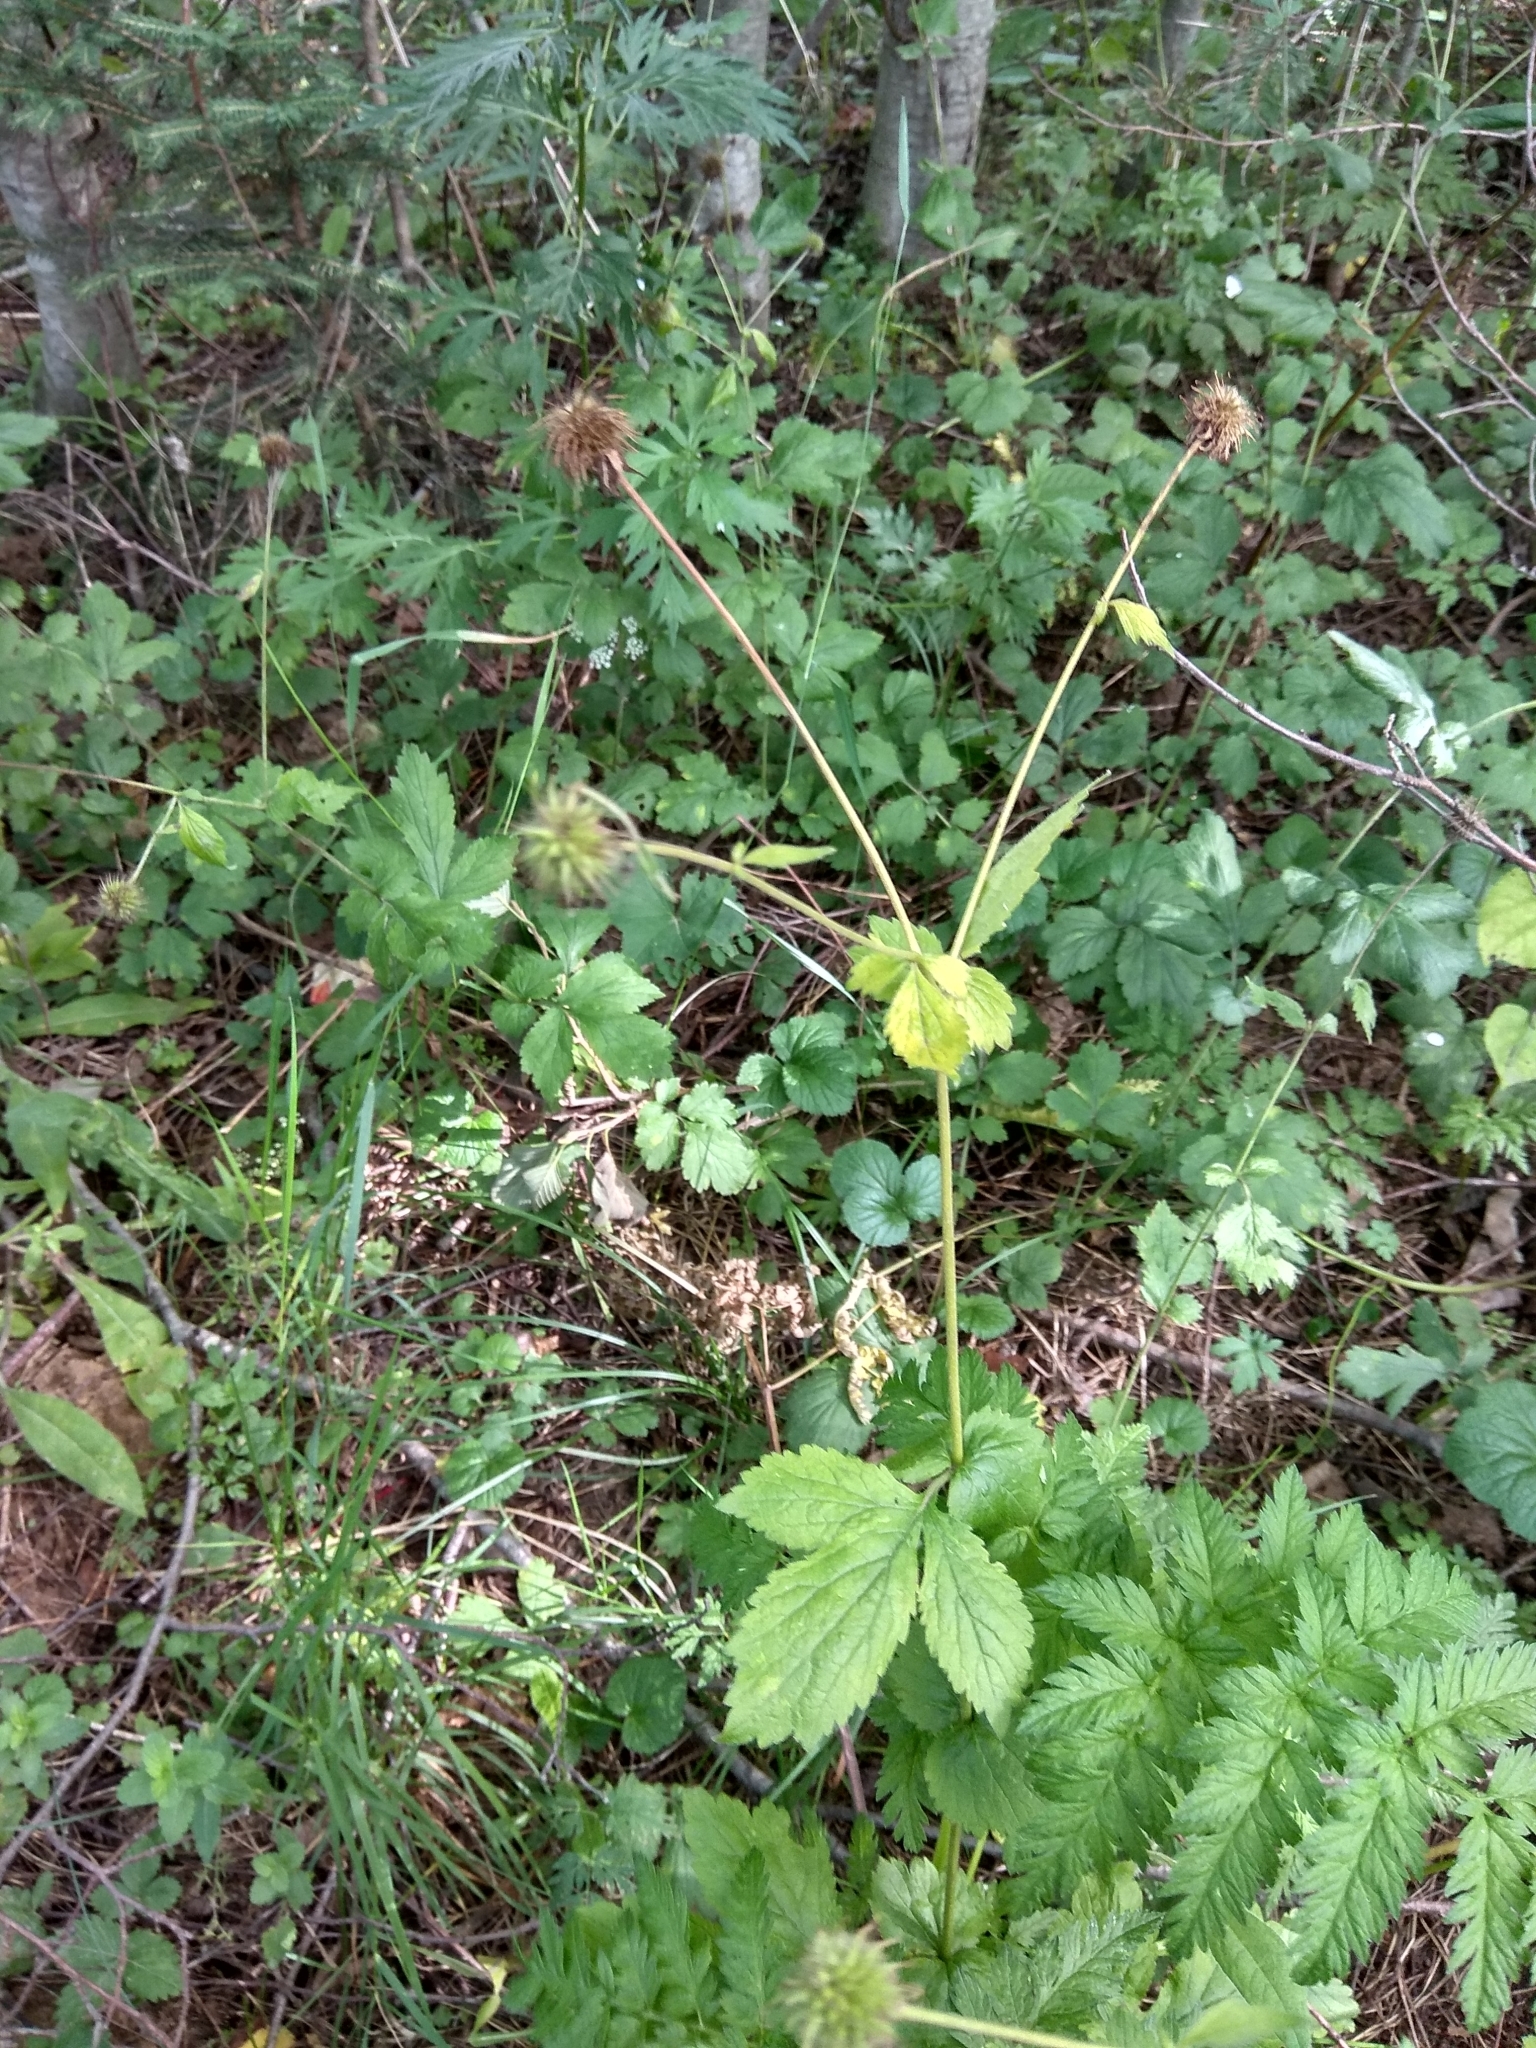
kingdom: Plantae
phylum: Tracheophyta
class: Magnoliopsida
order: Rosales
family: Rosaceae
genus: Geum
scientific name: Geum urbanum
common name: Wood avens
